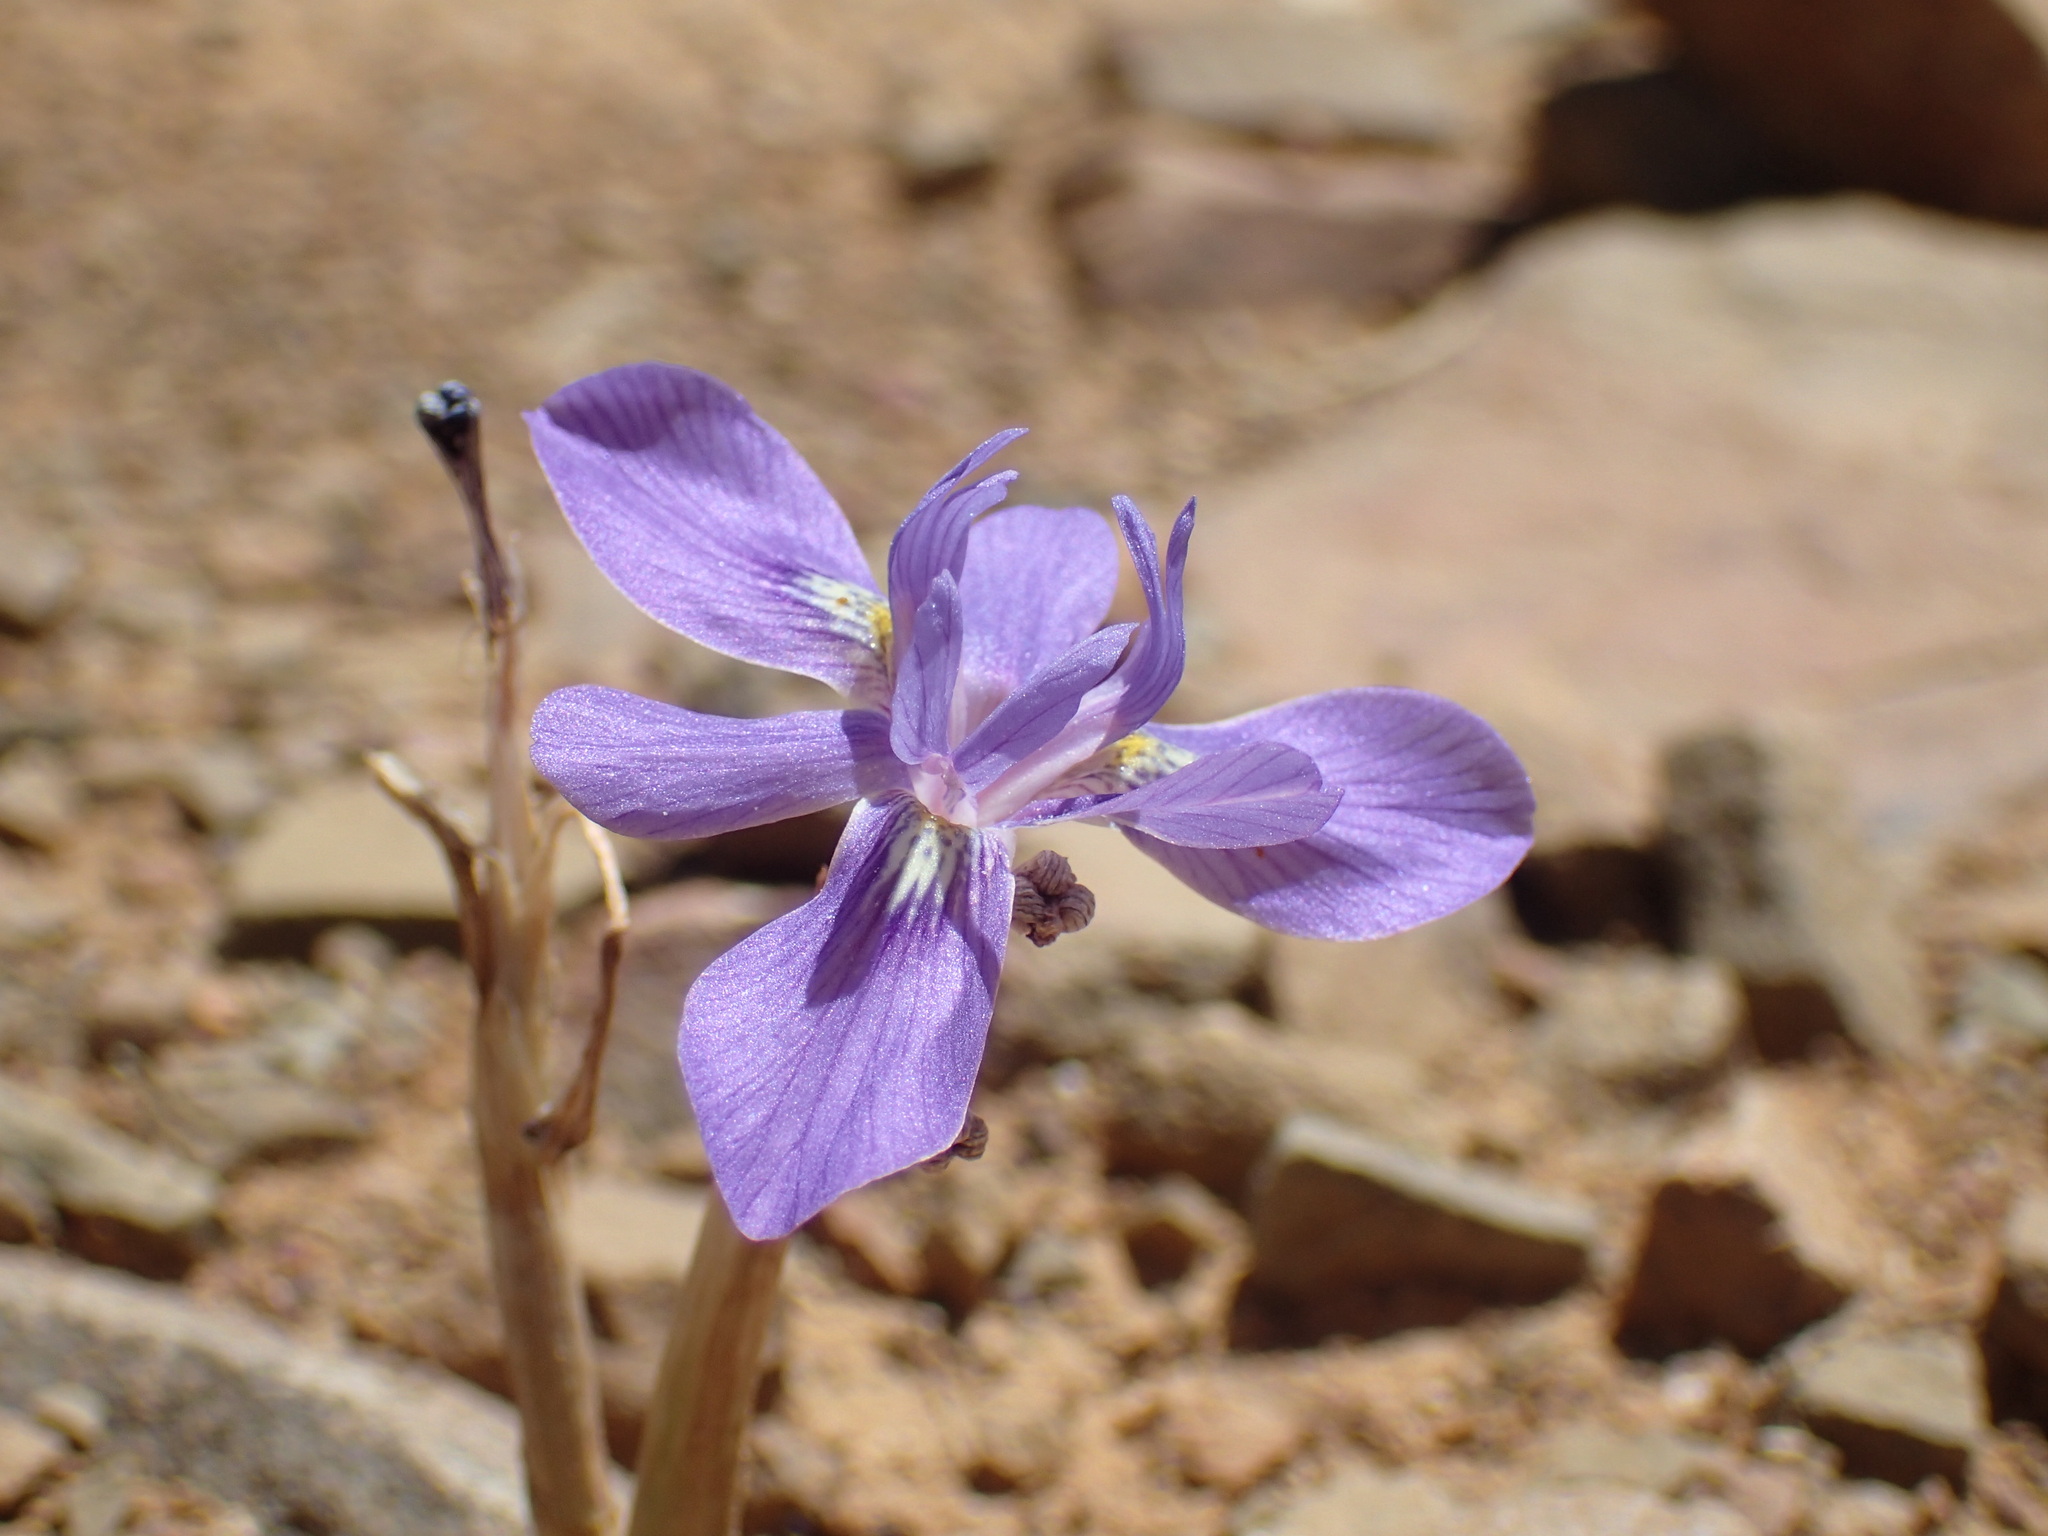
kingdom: Plantae
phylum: Tracheophyta
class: Liliopsida
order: Asparagales
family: Iridaceae
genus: Moraea
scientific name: Moraea pritzeliana
